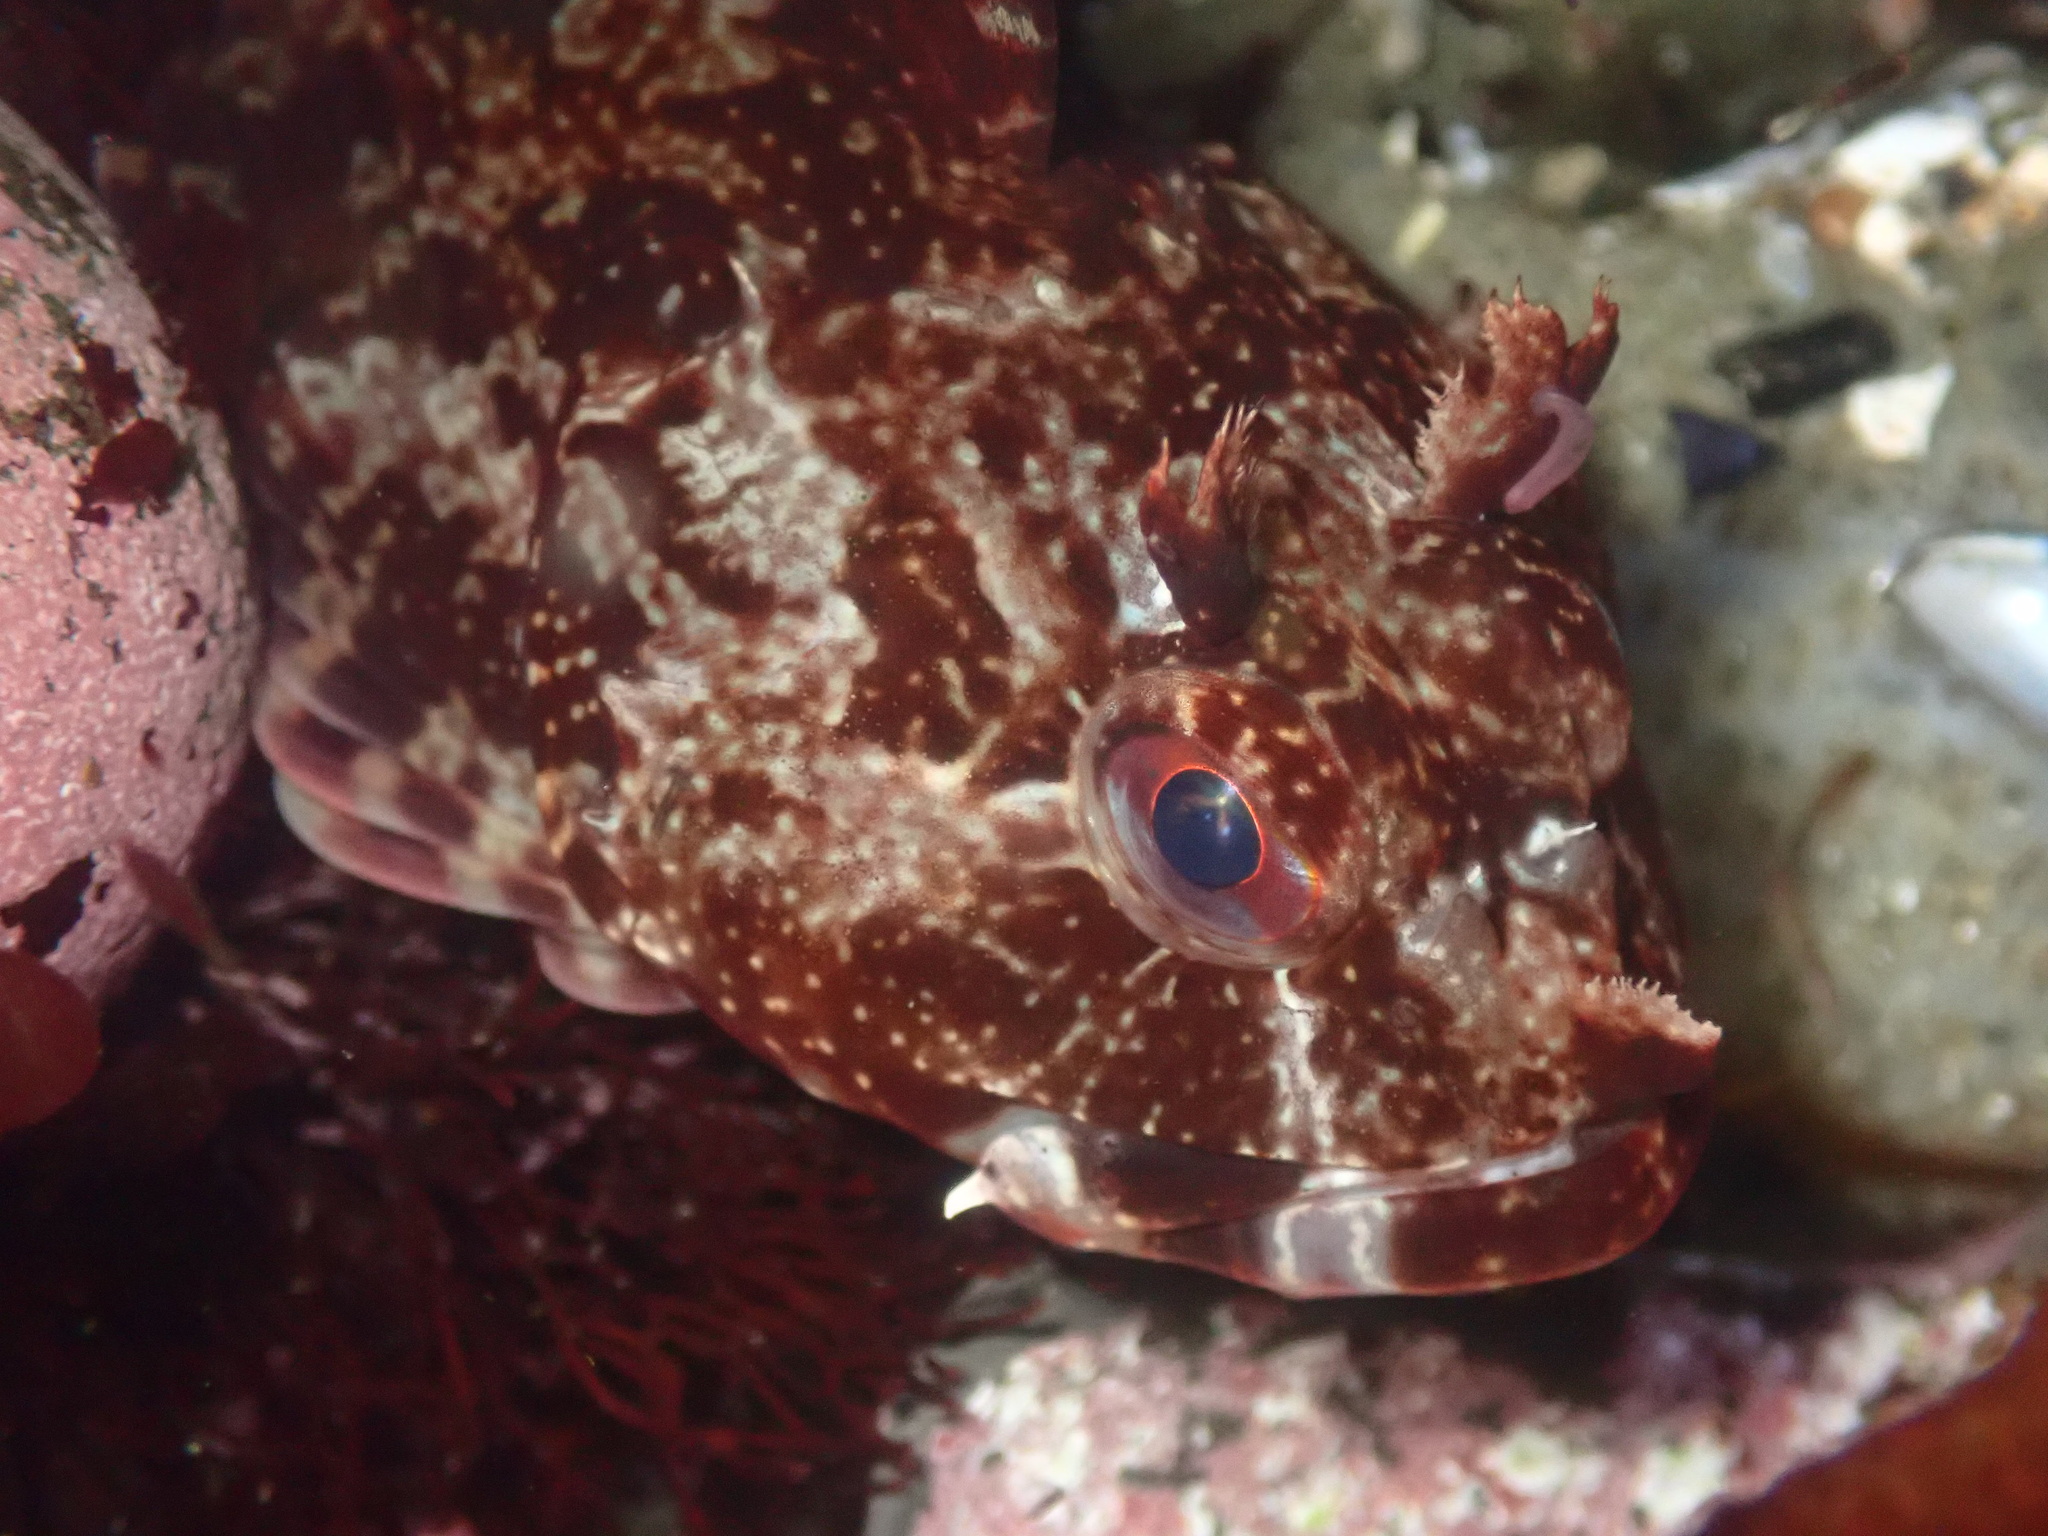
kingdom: Animalia
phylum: Chordata
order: Scorpaeniformes
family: Cottidae
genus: Scorpaenichthys
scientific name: Scorpaenichthys marmoratus
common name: Cabezon
